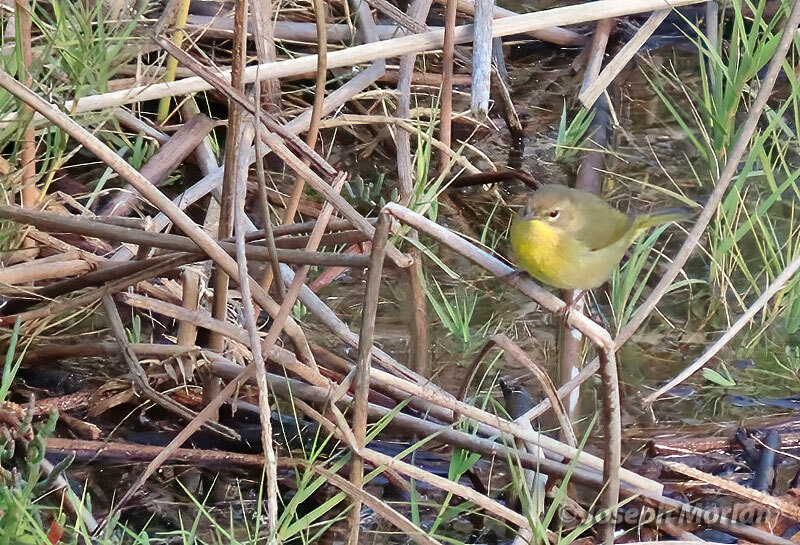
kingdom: Animalia
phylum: Chordata
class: Aves
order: Passeriformes
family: Parulidae
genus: Geothlypis
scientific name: Geothlypis trichas
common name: Common yellowthroat
